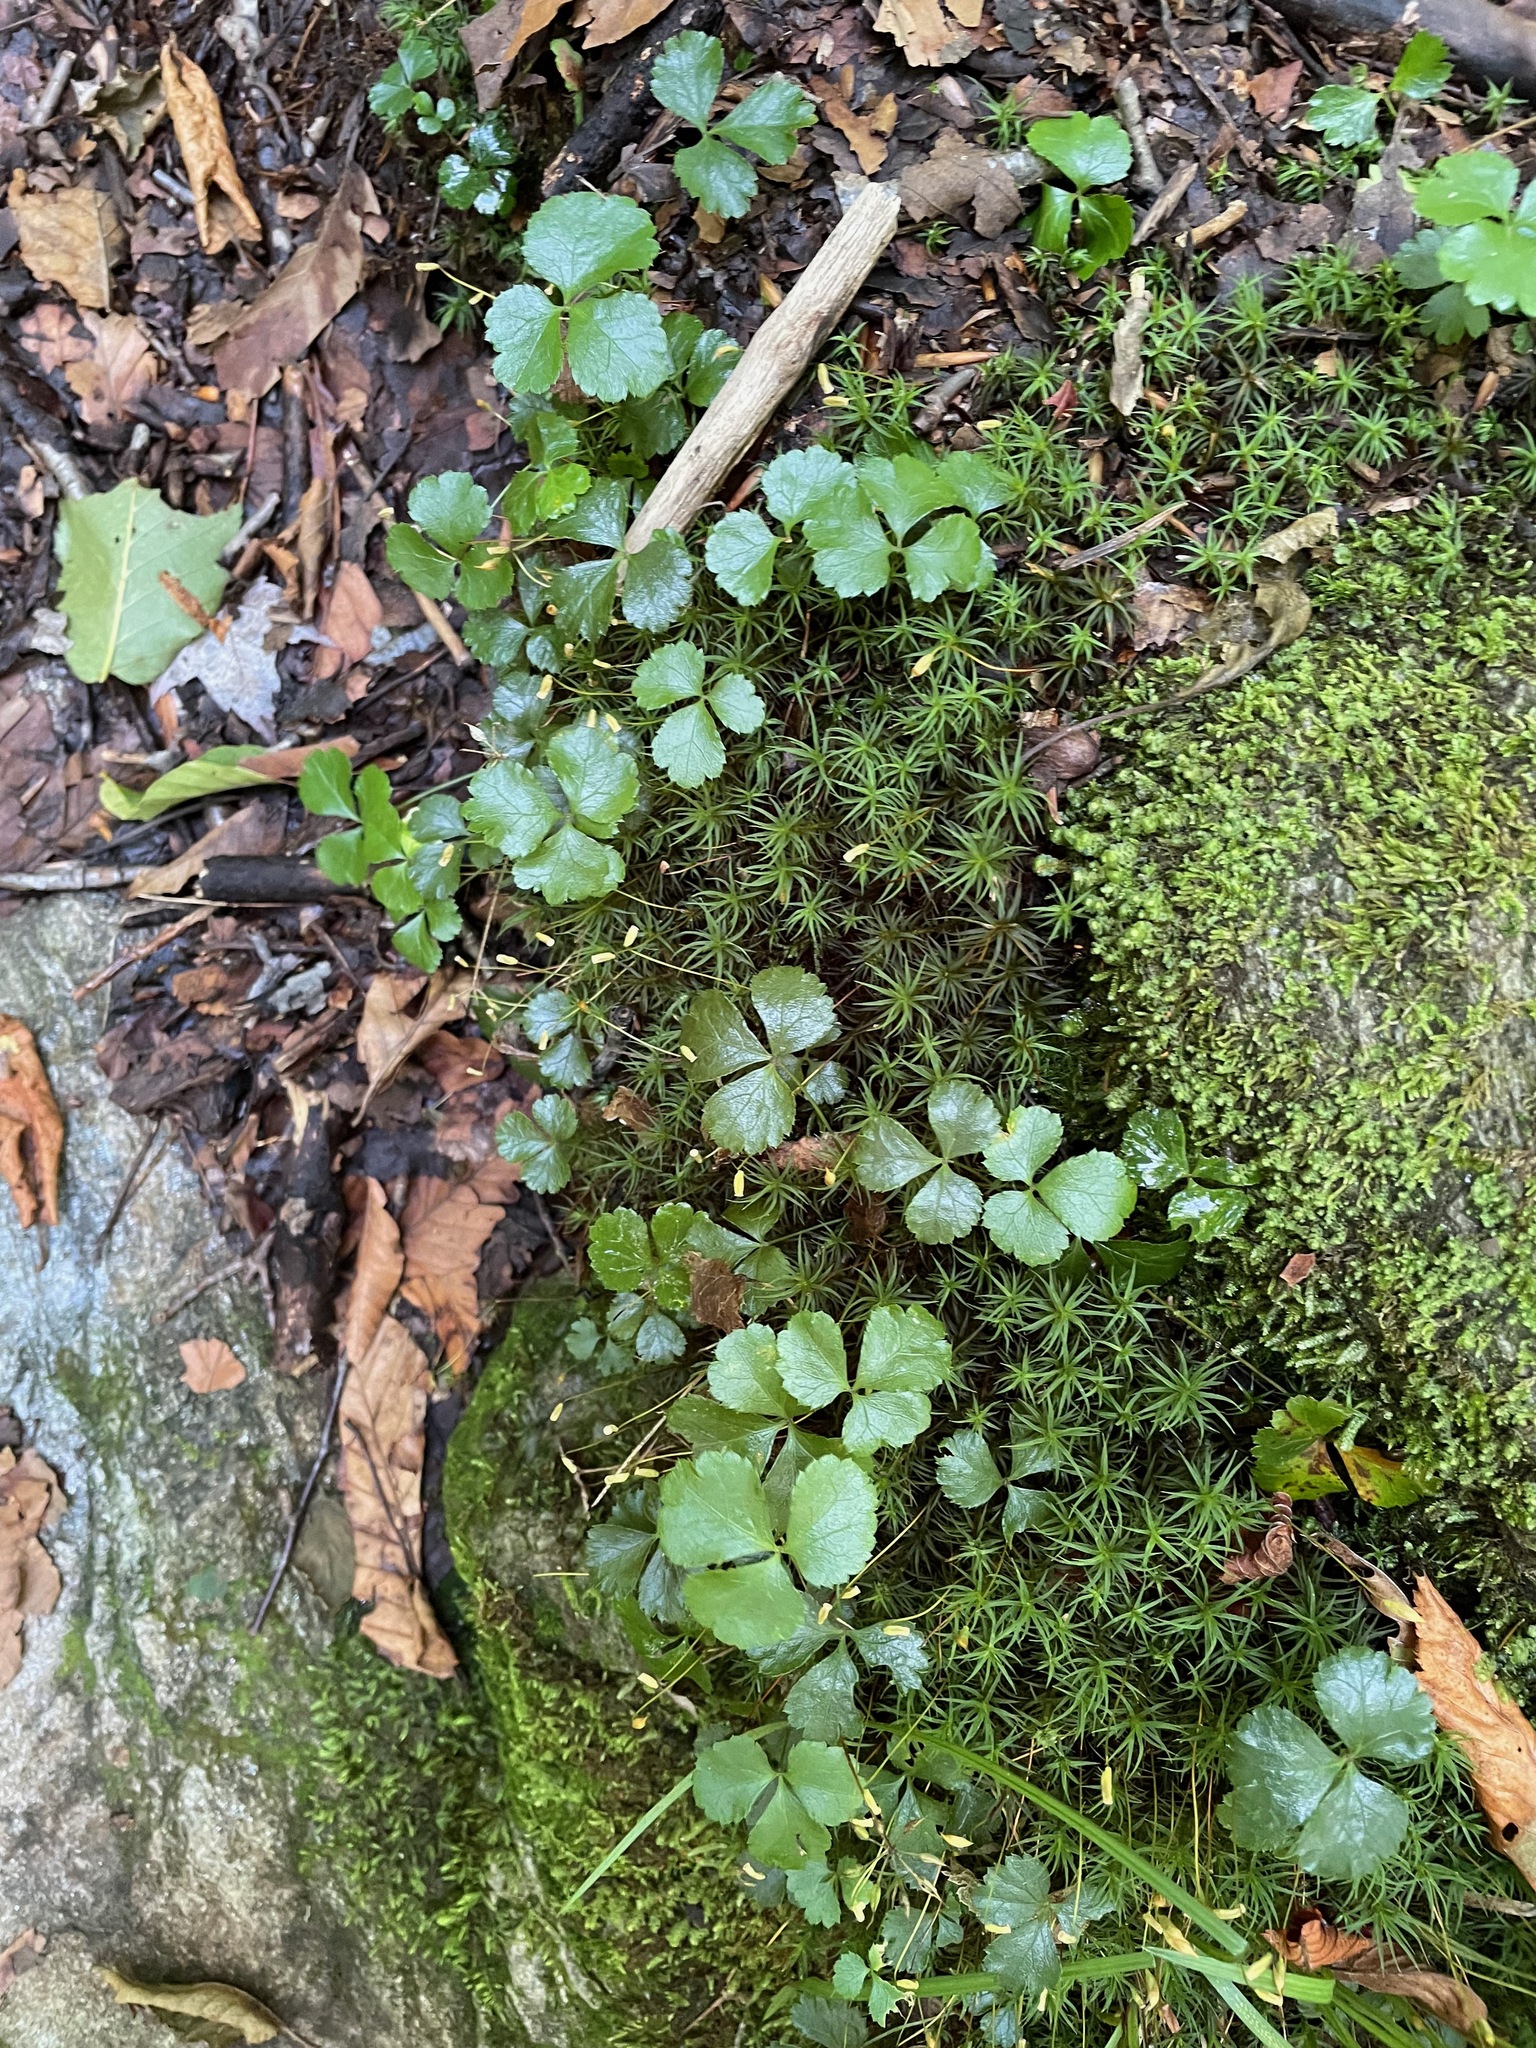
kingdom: Plantae
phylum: Tracheophyta
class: Magnoliopsida
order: Ranunculales
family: Ranunculaceae
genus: Coptis
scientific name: Coptis trifolia
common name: Canker-root
